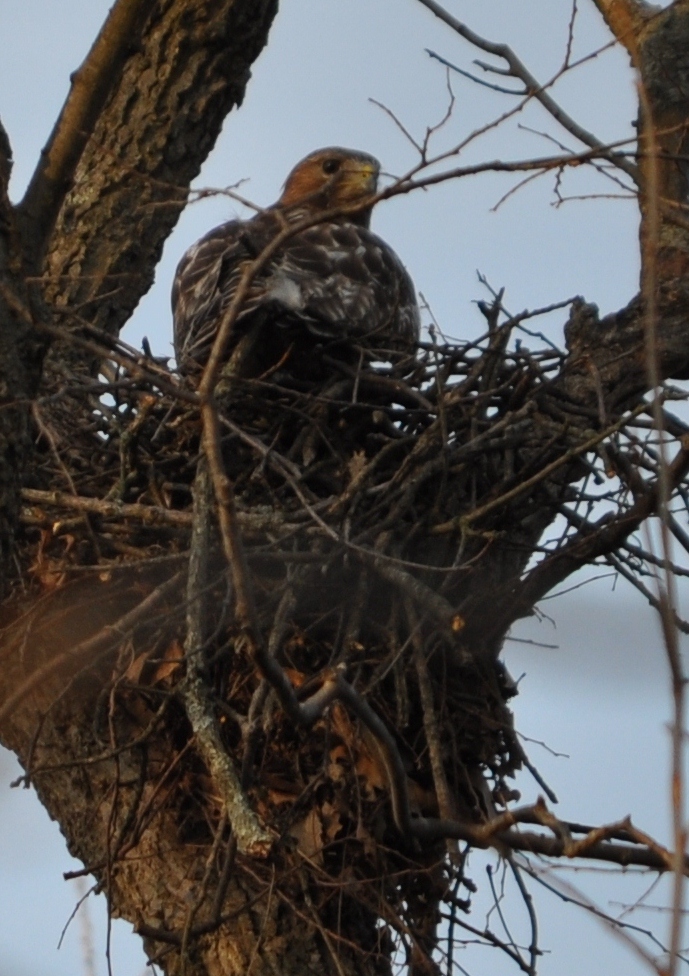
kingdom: Animalia
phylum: Chordata
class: Aves
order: Accipitriformes
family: Accipitridae
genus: Buteo
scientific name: Buteo jamaicensis
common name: Red-tailed hawk
